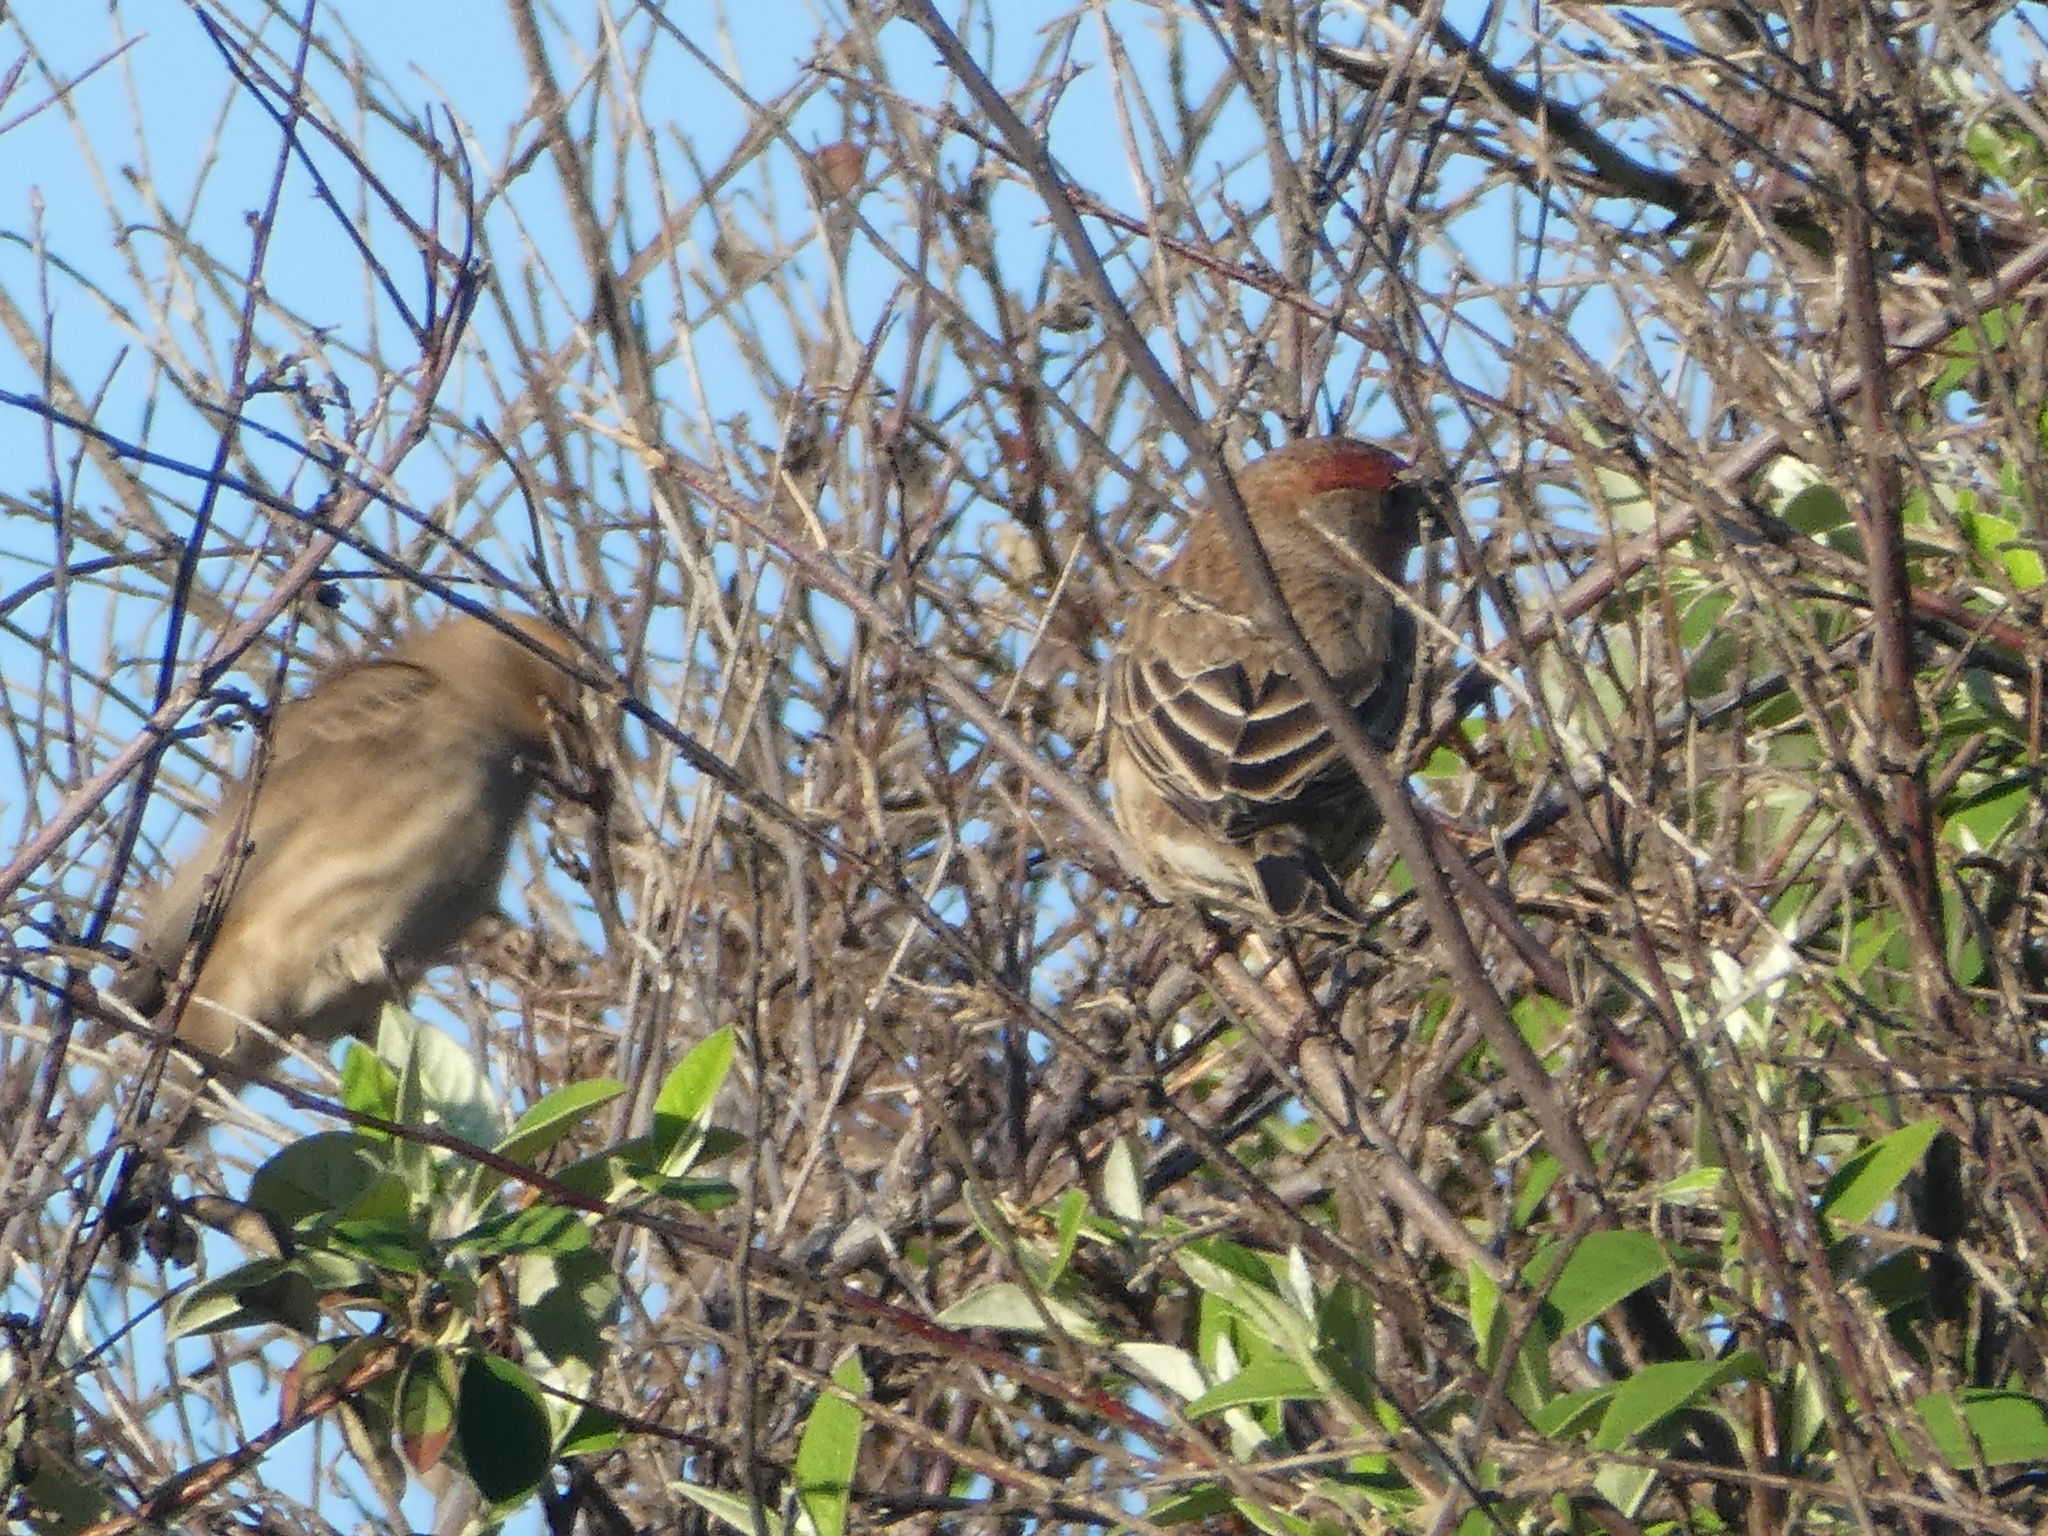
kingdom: Animalia
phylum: Chordata
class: Aves
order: Passeriformes
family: Fringillidae
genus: Haemorhous
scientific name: Haemorhous mexicanus
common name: House finch
